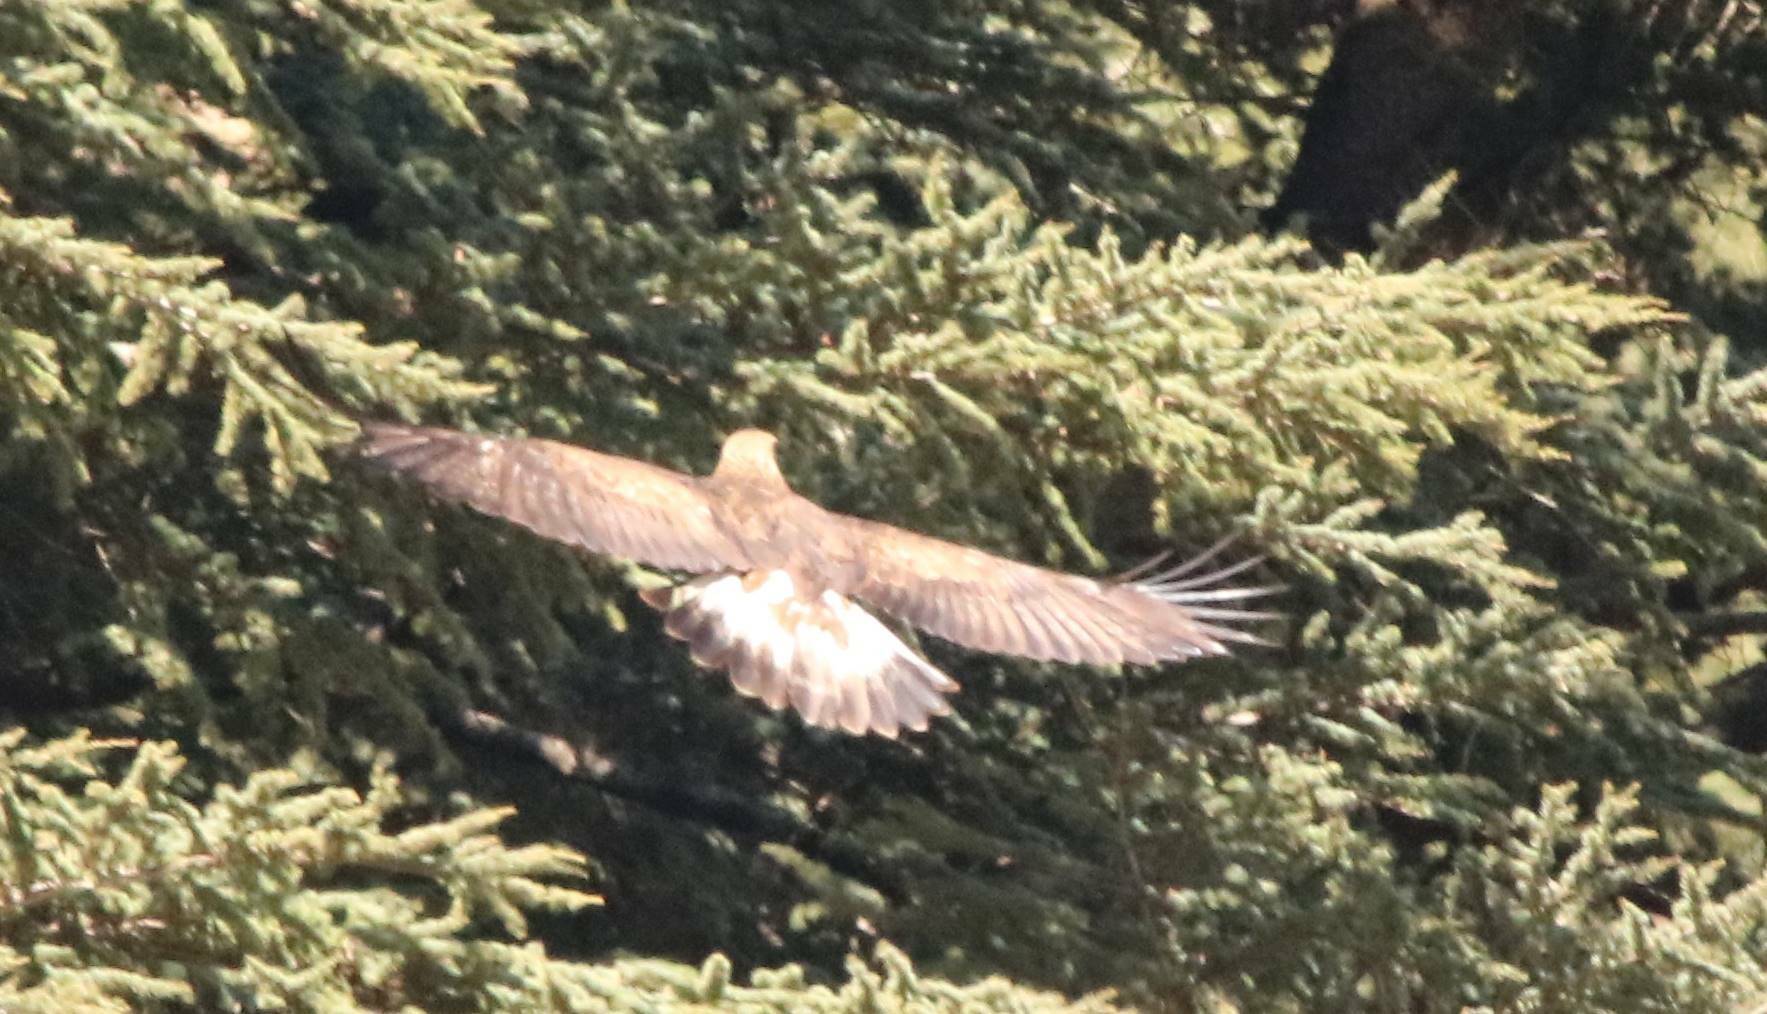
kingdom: Animalia
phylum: Chordata
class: Aves
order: Accipitriformes
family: Accipitridae
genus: Aquila
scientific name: Aquila chrysaetos
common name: Golden eagle
